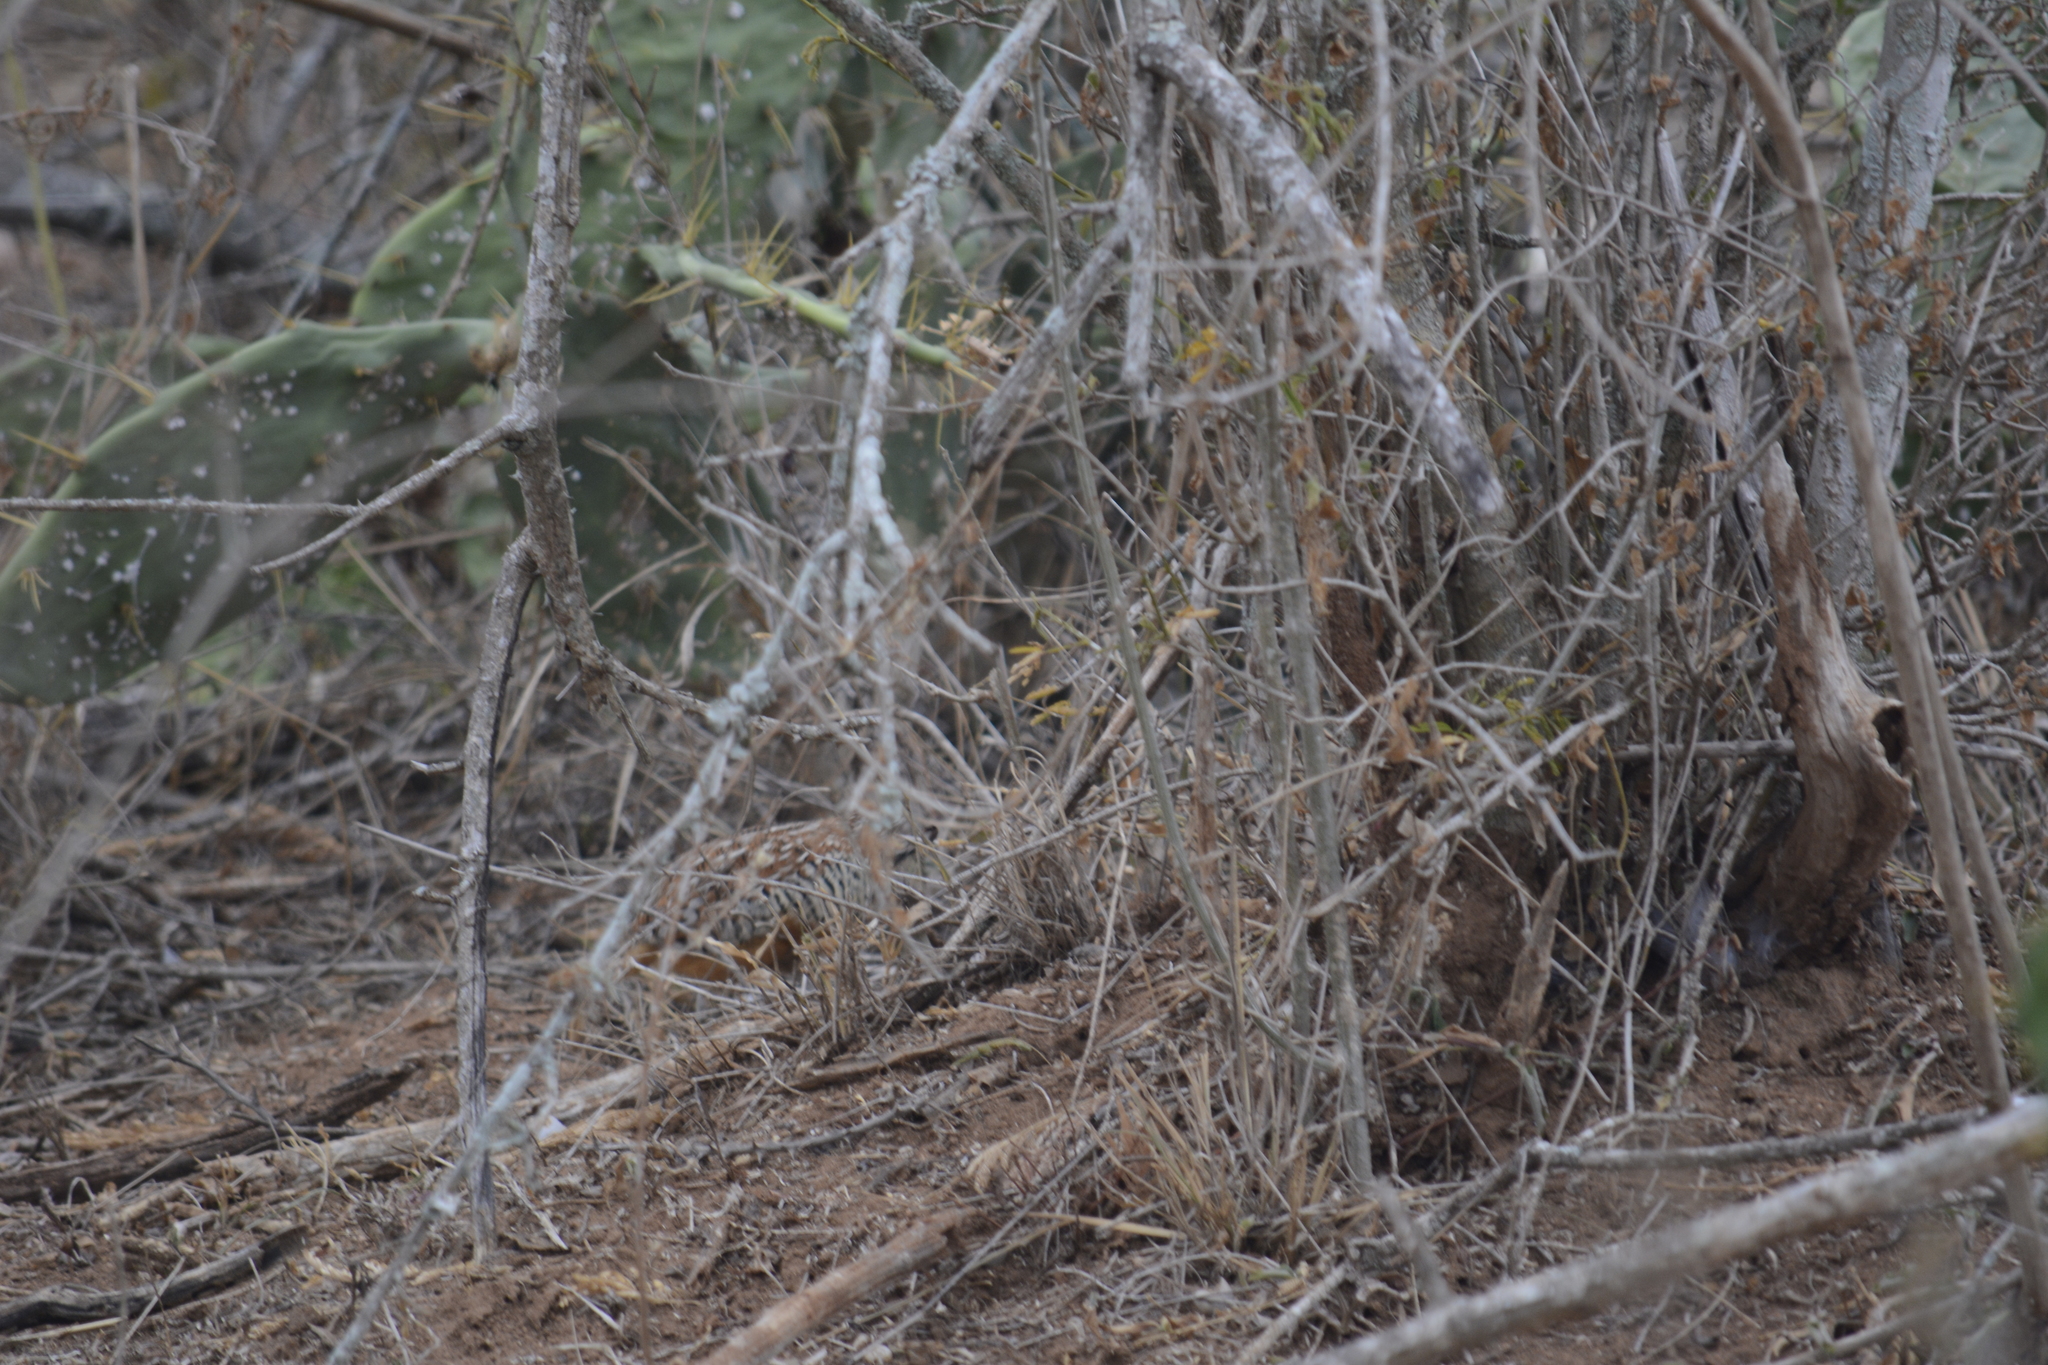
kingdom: Animalia
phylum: Chordata
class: Aves
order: Charadriiformes
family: Turnicidae
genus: Turnix
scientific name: Turnix suscitator
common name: Barred buttonquail
